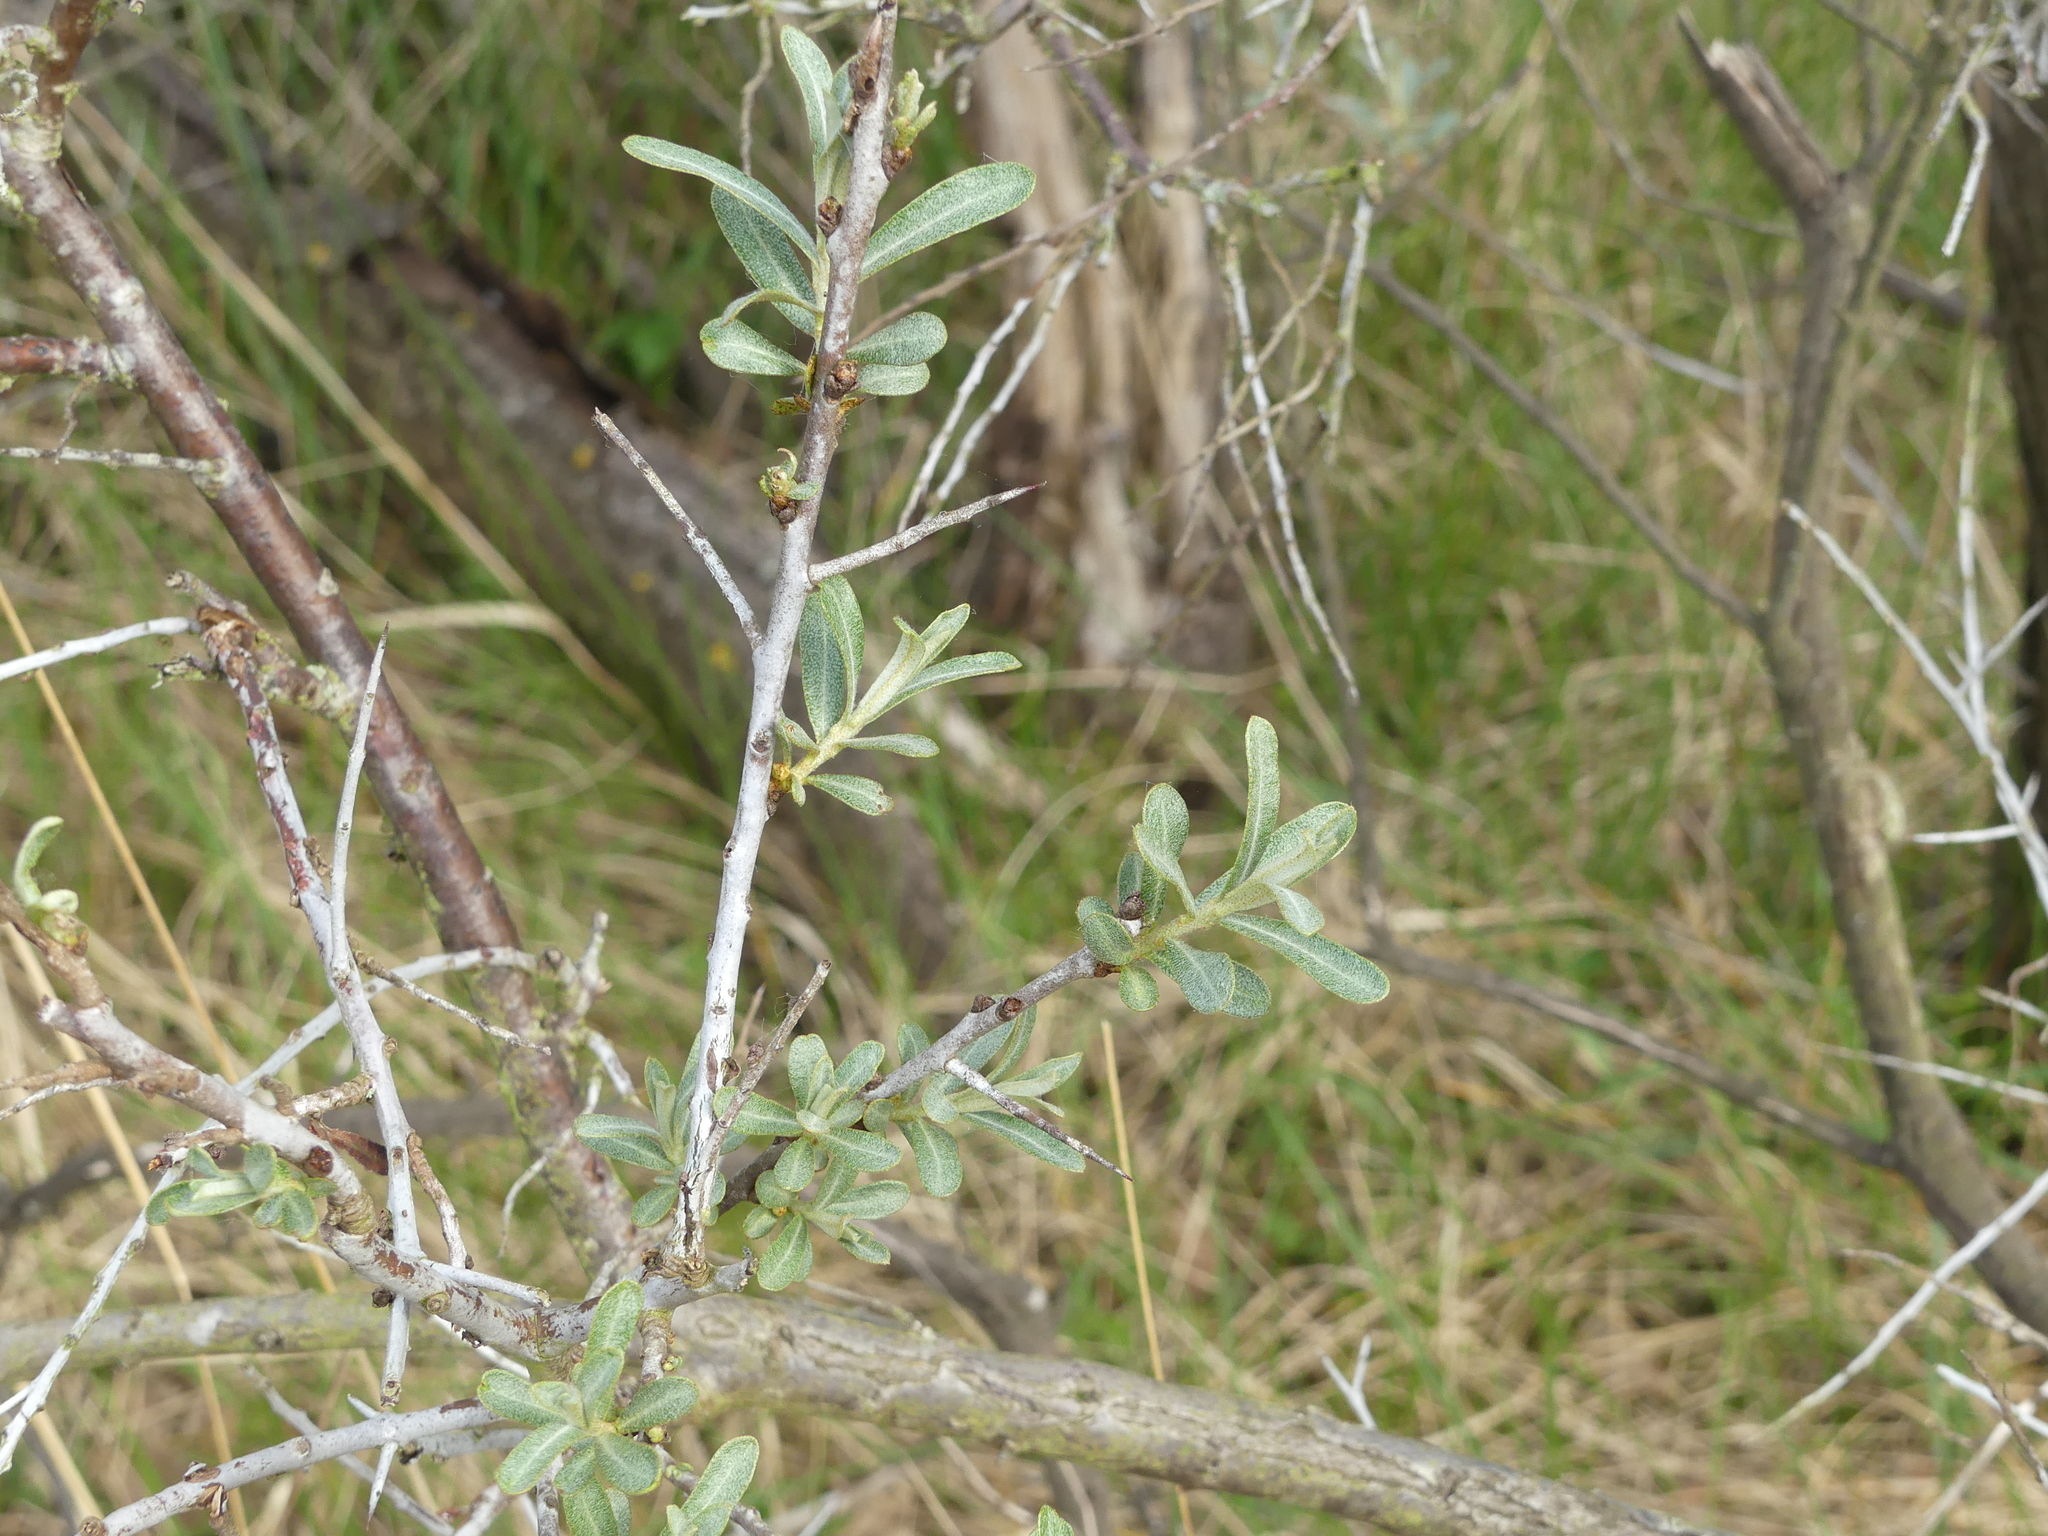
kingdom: Plantae
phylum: Tracheophyta
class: Magnoliopsida
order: Rosales
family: Elaeagnaceae
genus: Hippophae
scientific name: Hippophae rhamnoides
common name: Sea-buckthorn
